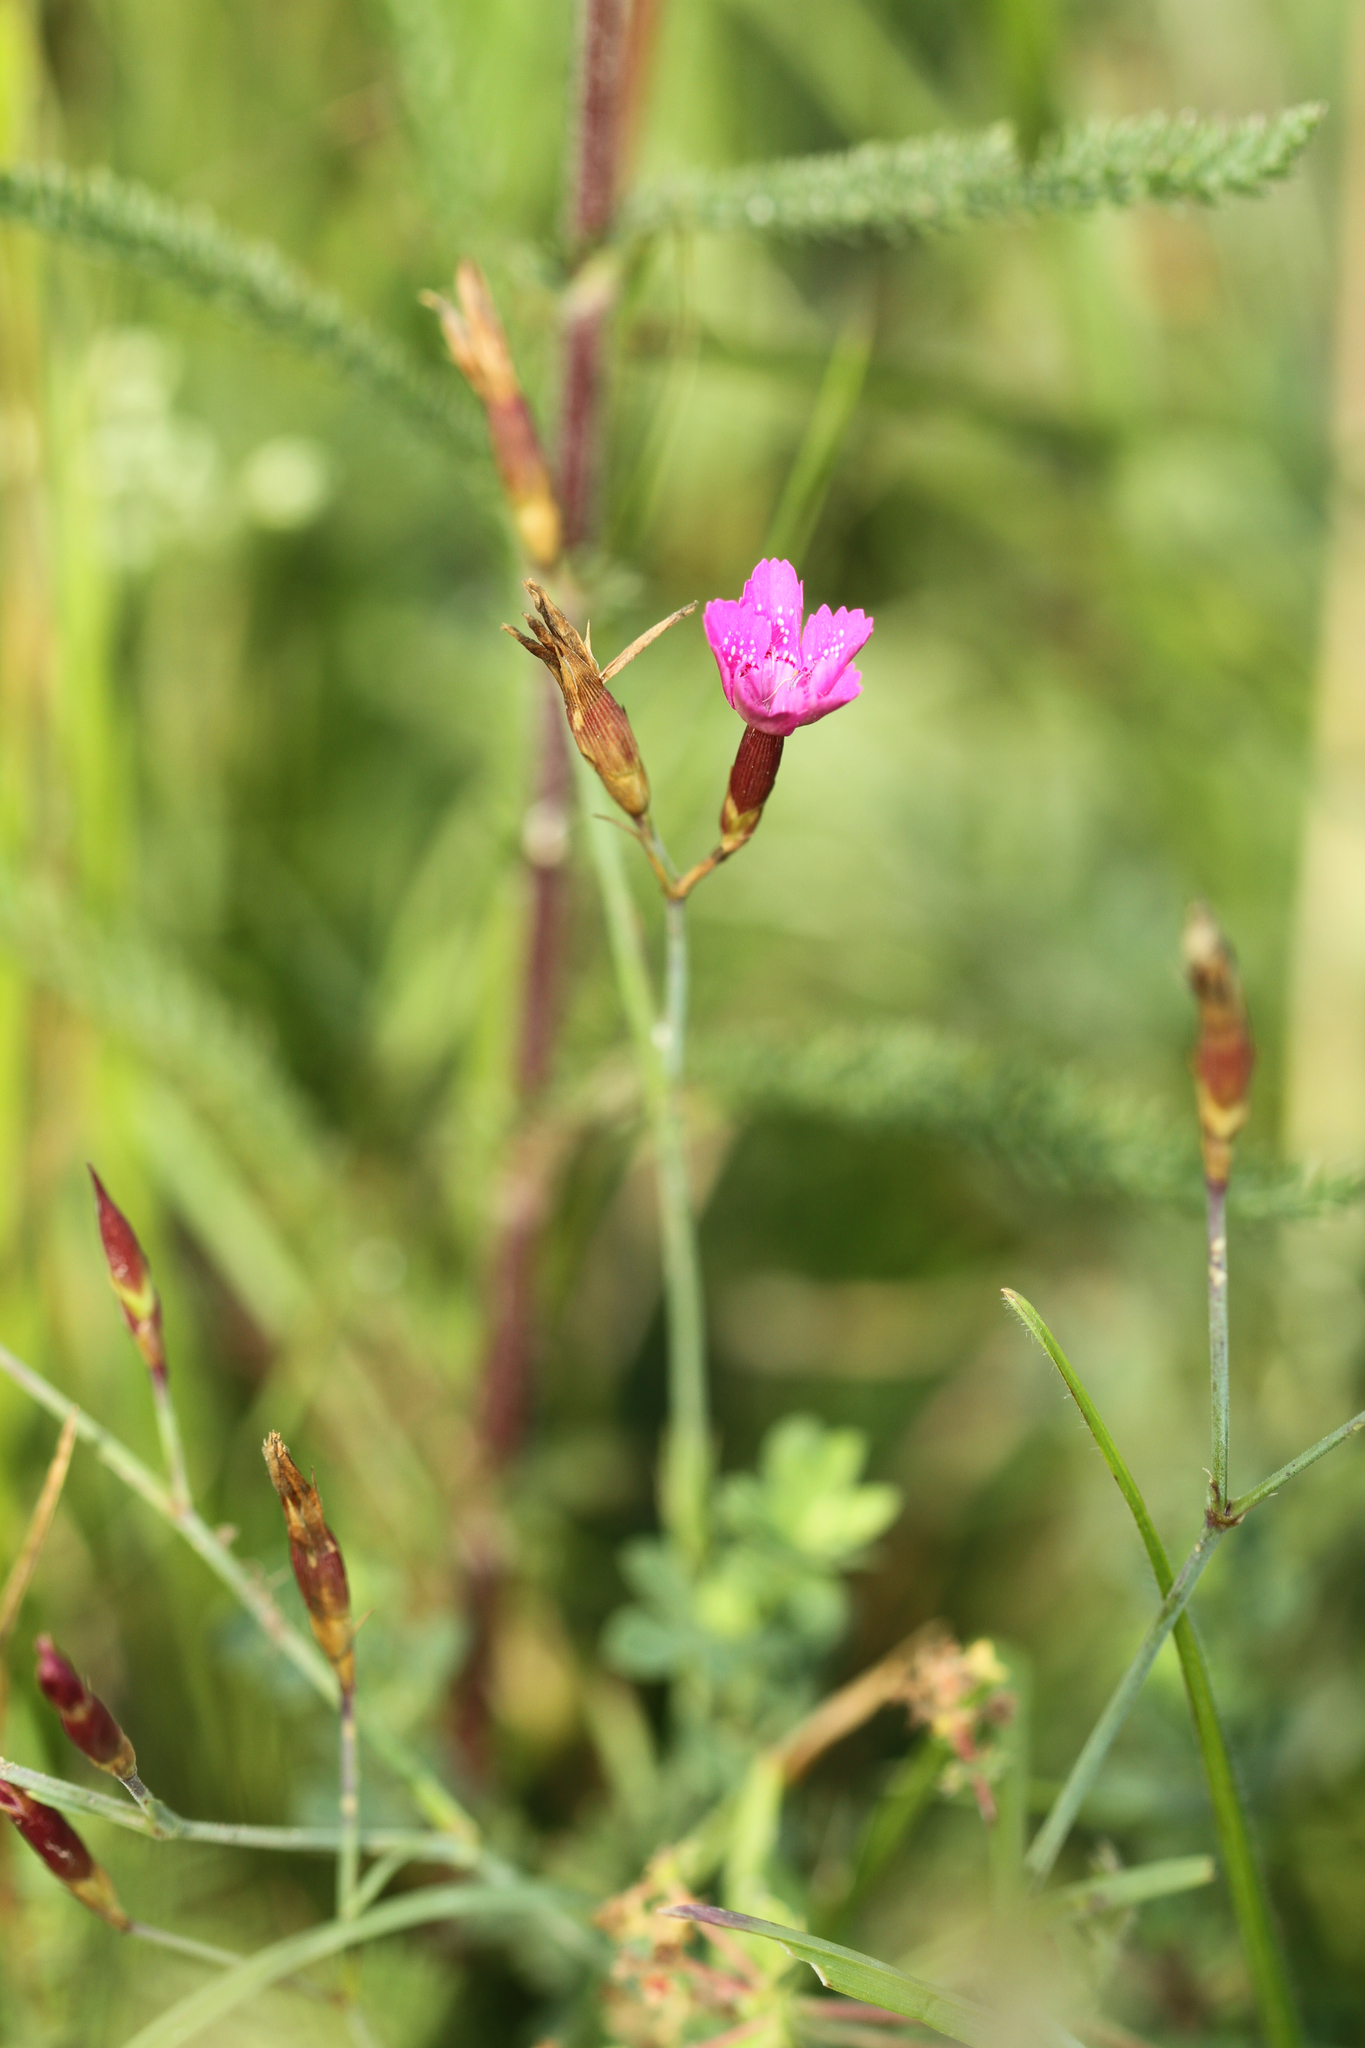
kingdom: Plantae
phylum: Tracheophyta
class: Magnoliopsida
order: Caryophyllales
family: Caryophyllaceae
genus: Dianthus
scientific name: Dianthus deltoides
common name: Maiden pink
